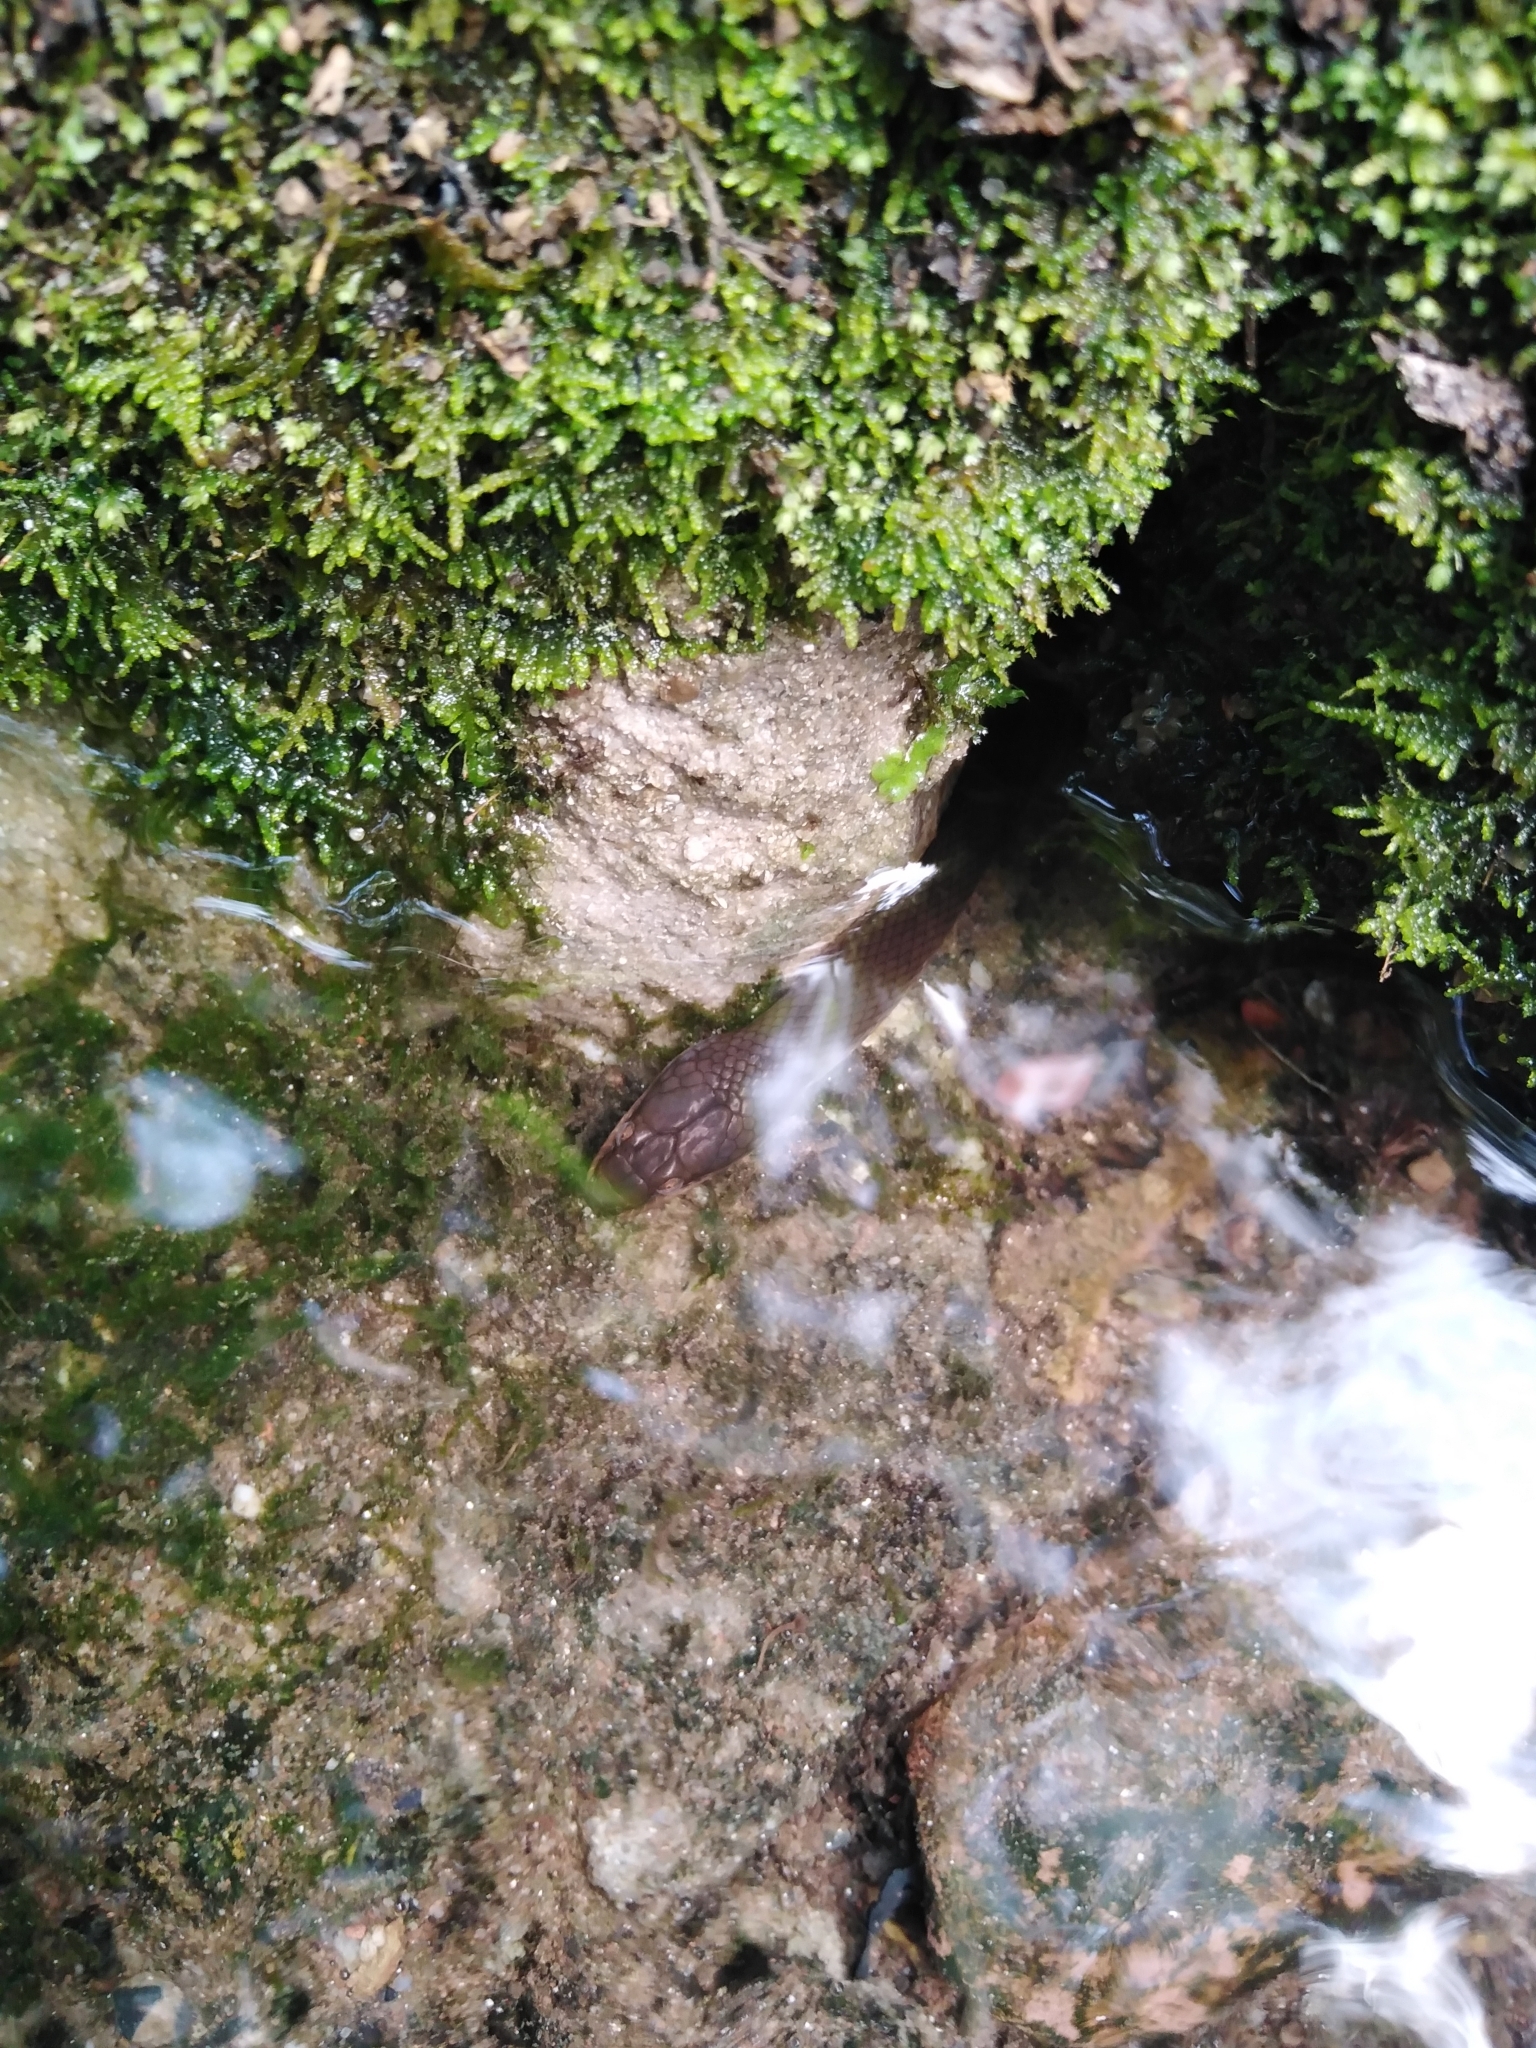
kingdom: Animalia
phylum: Chordata
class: Squamata
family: Lamprophiidae
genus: Lycodonomorphus
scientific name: Lycodonomorphus rufulus
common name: Brown water snake
